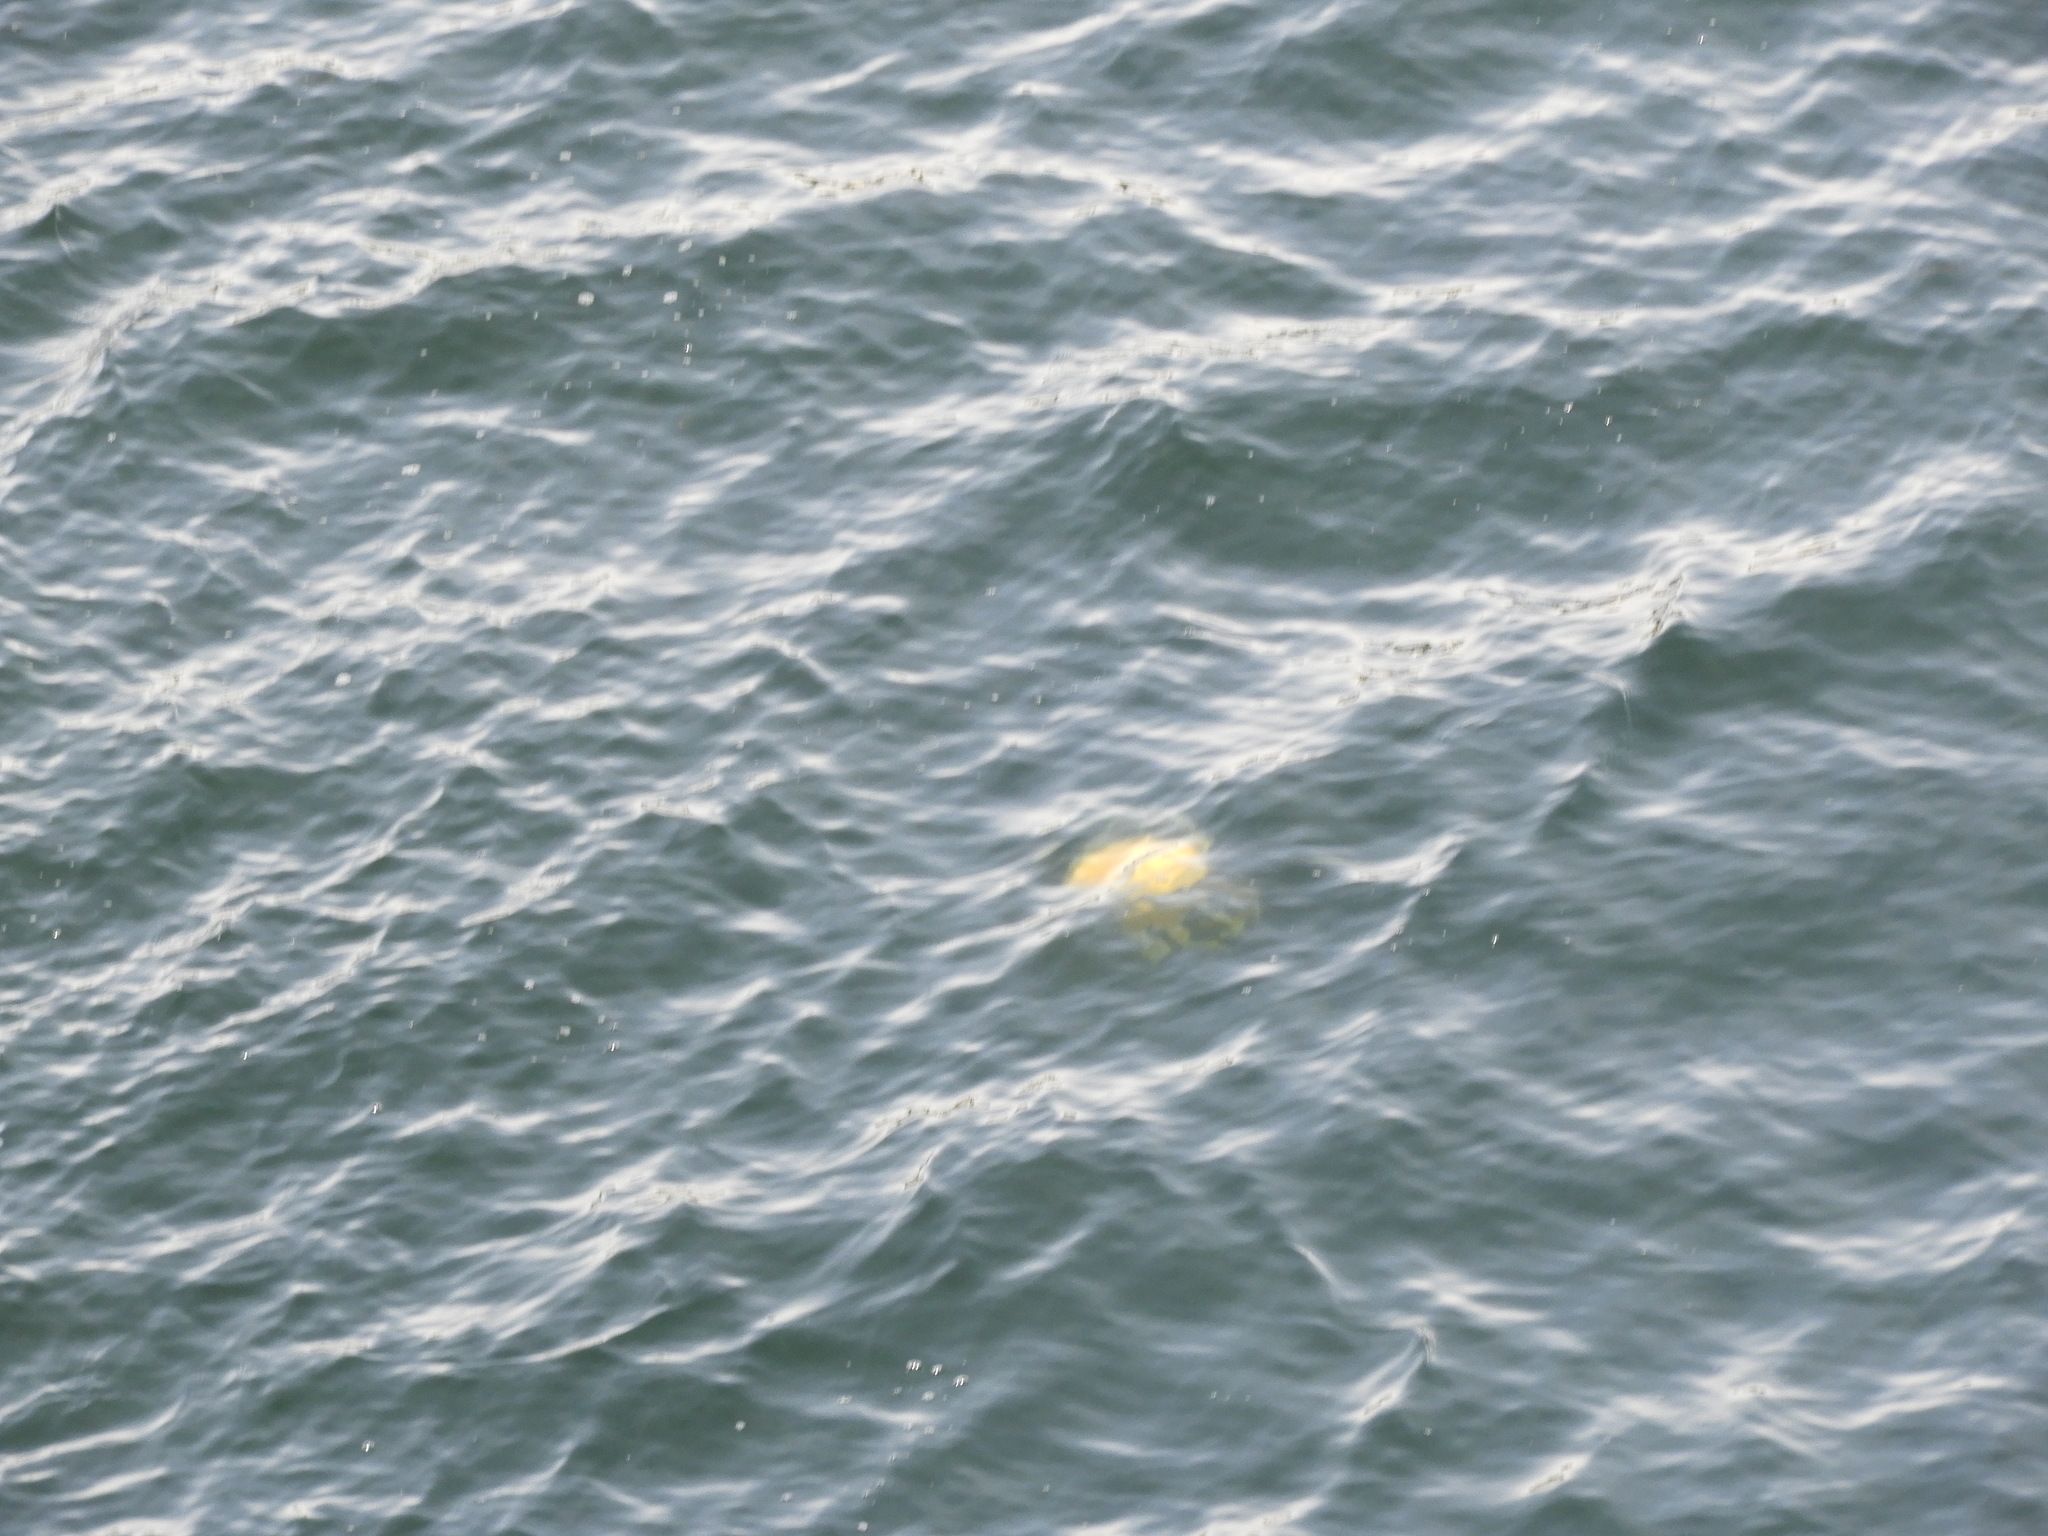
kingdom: Animalia
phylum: Cnidaria
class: Scyphozoa
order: Semaeostomeae
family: Phacellophoridae
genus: Phacellophora
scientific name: Phacellophora camtschatica
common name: Fried-egg jellyfish
